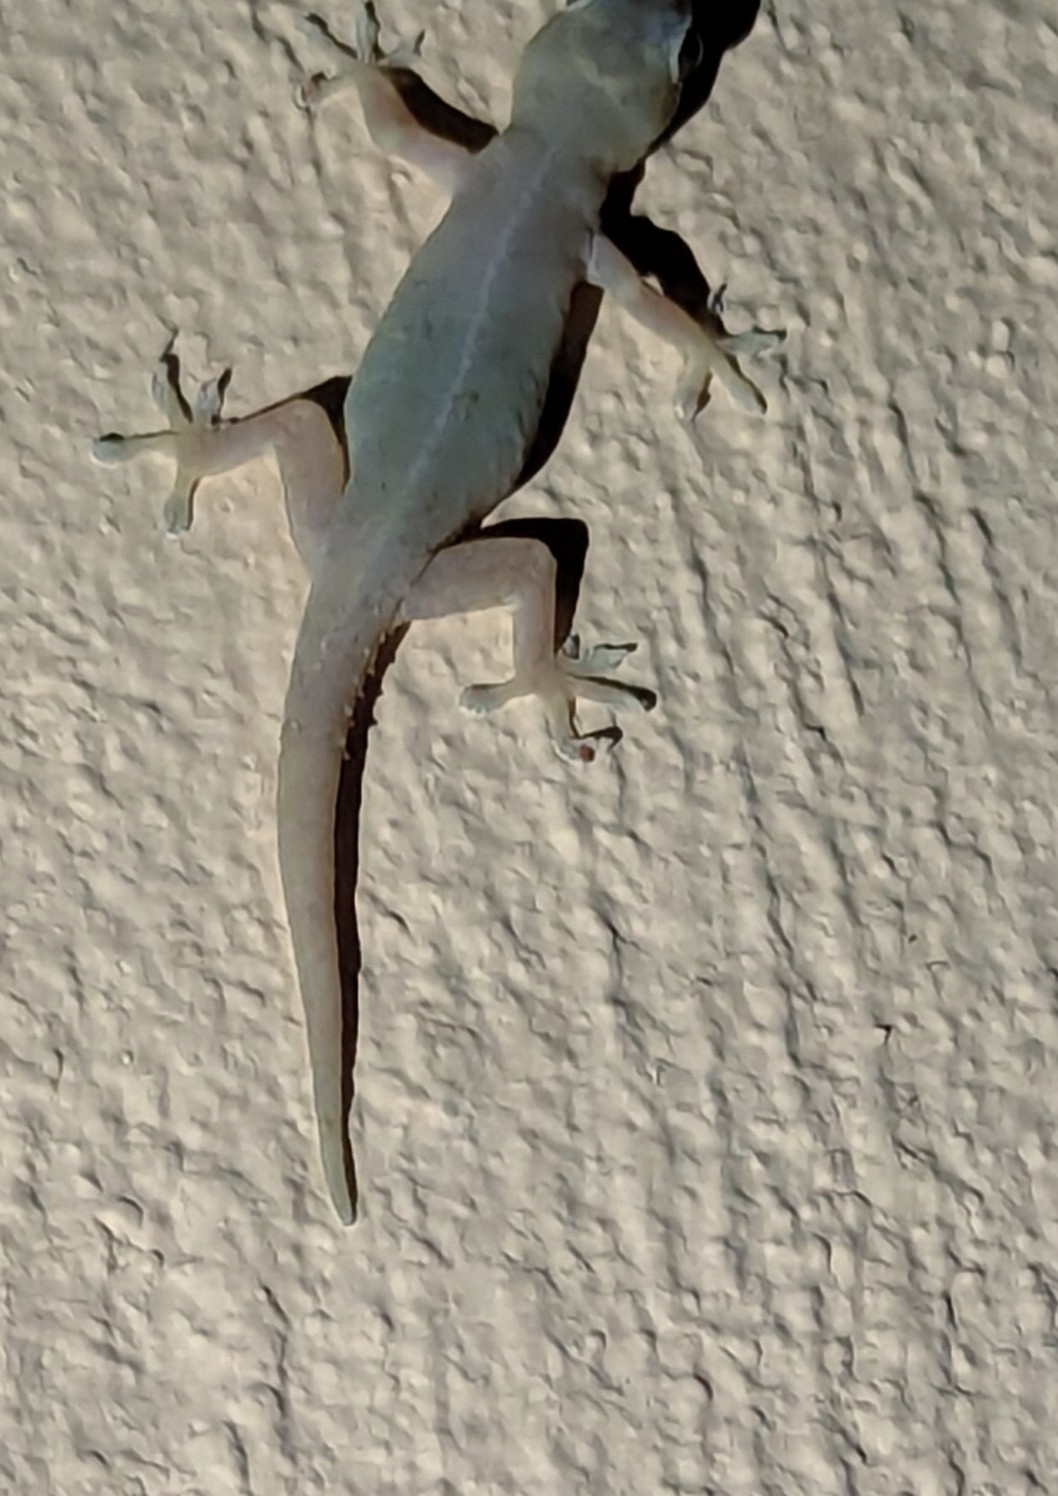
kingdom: Animalia
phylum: Chordata
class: Squamata
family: Gekkonidae
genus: Hemidactylus
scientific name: Hemidactylus frenatus
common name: Common house gecko
